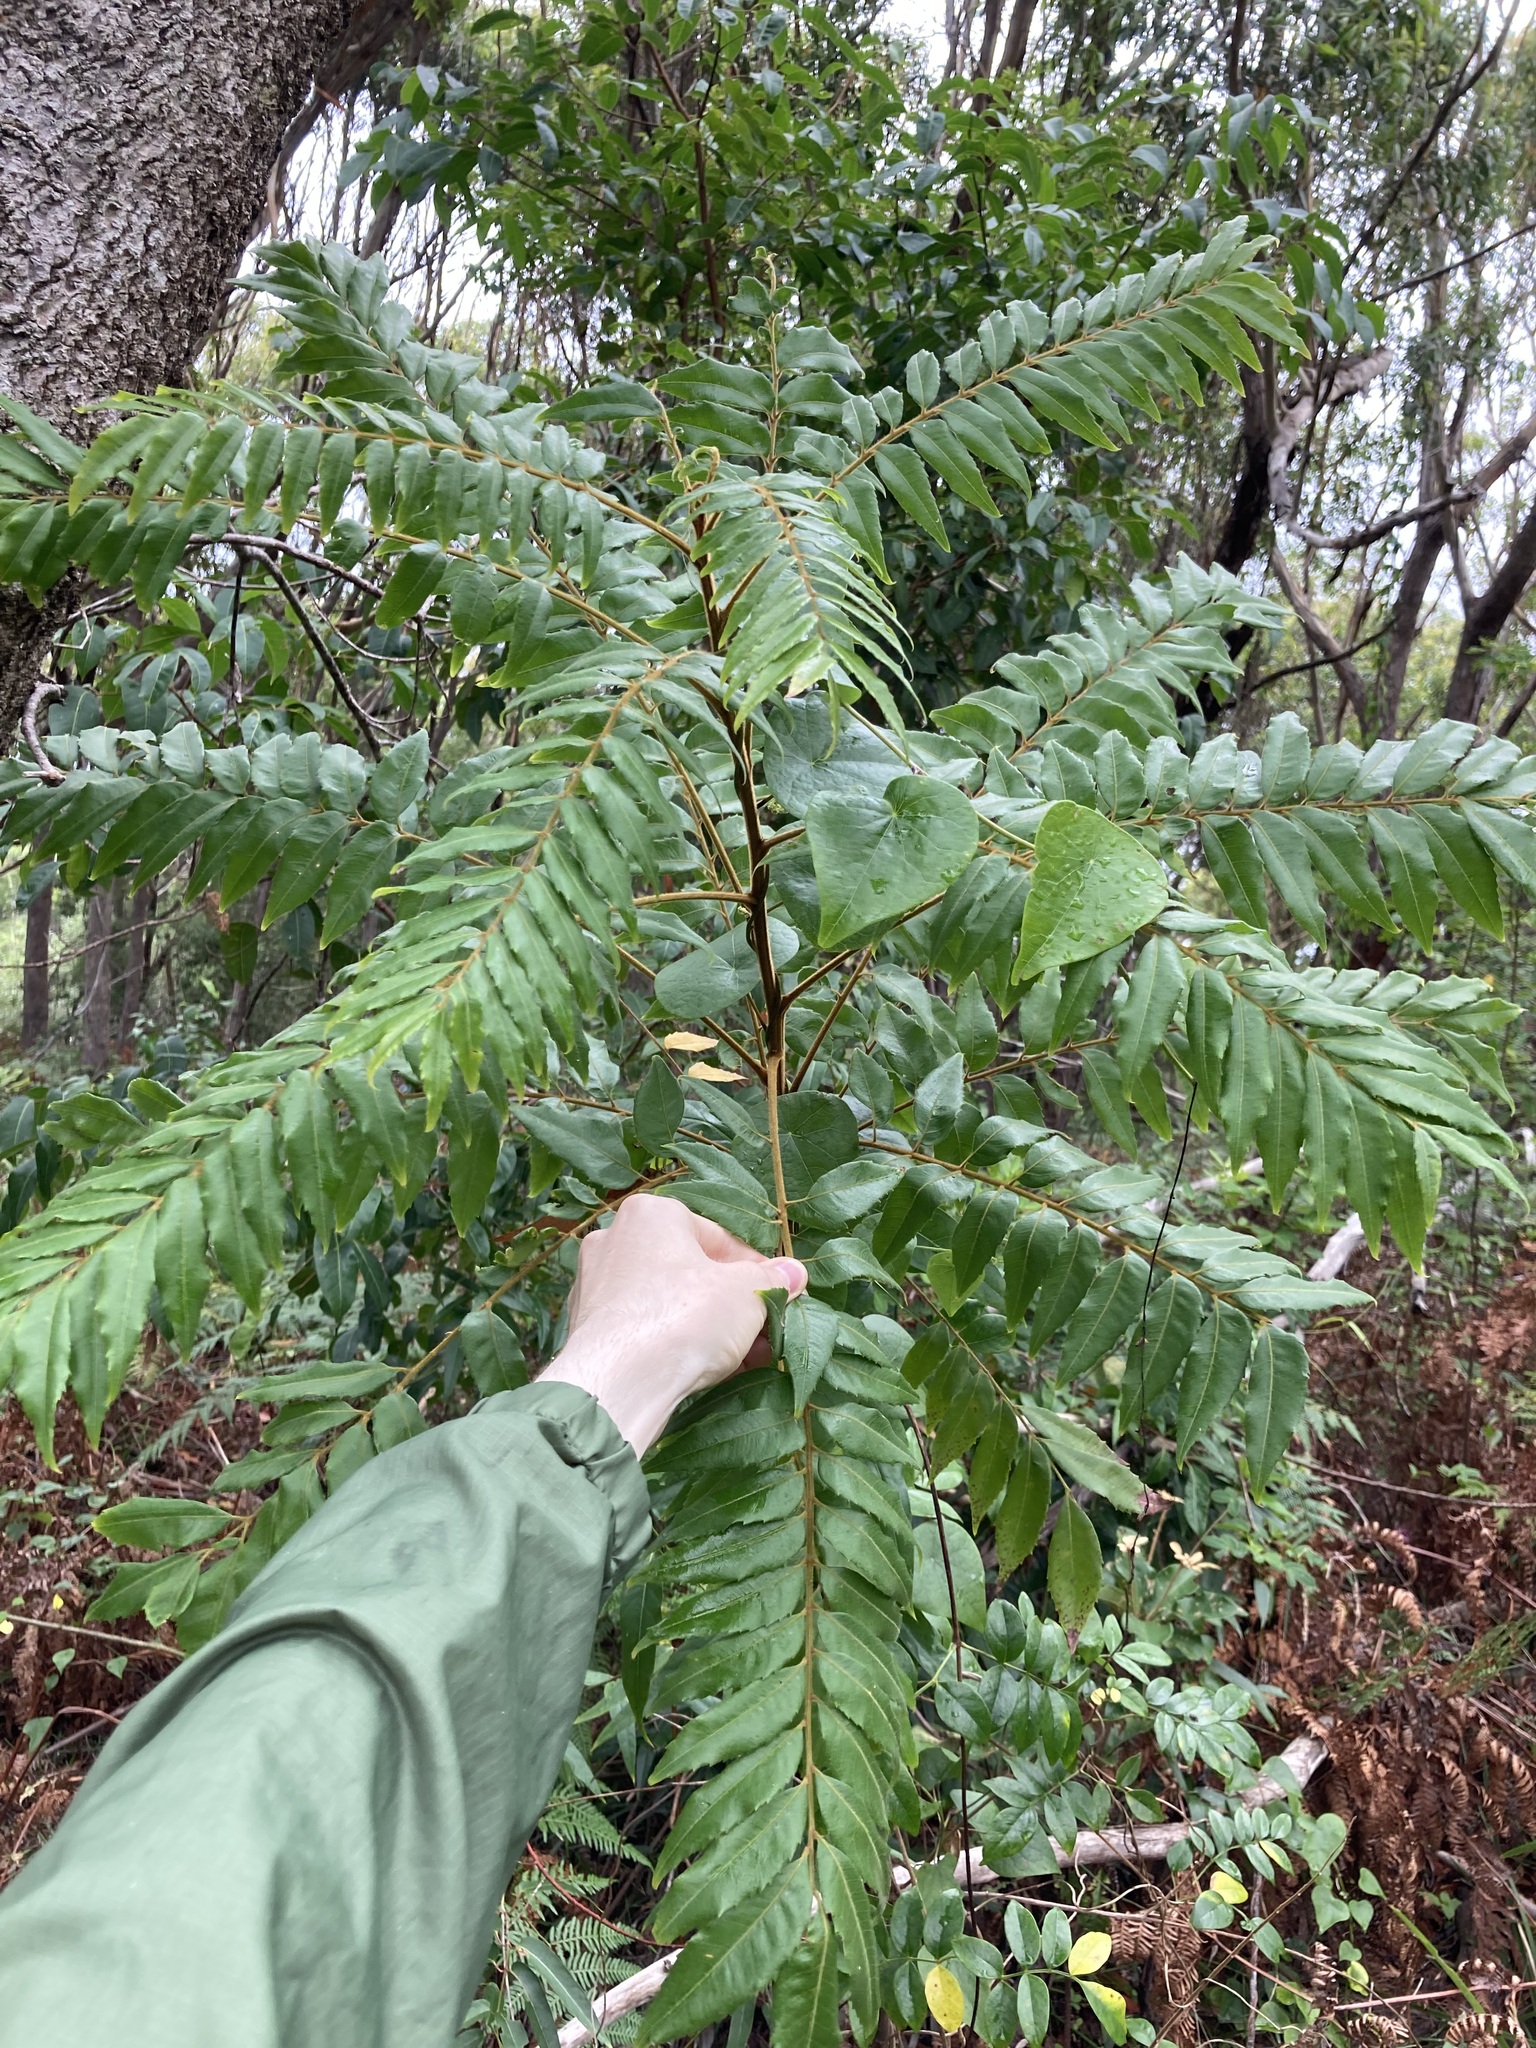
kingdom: Plantae
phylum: Tracheophyta
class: Magnoliopsida
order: Sapindales
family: Sapindaceae
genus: Jagera
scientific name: Jagera pseudorhus
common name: Fern-leaf-tamarind
